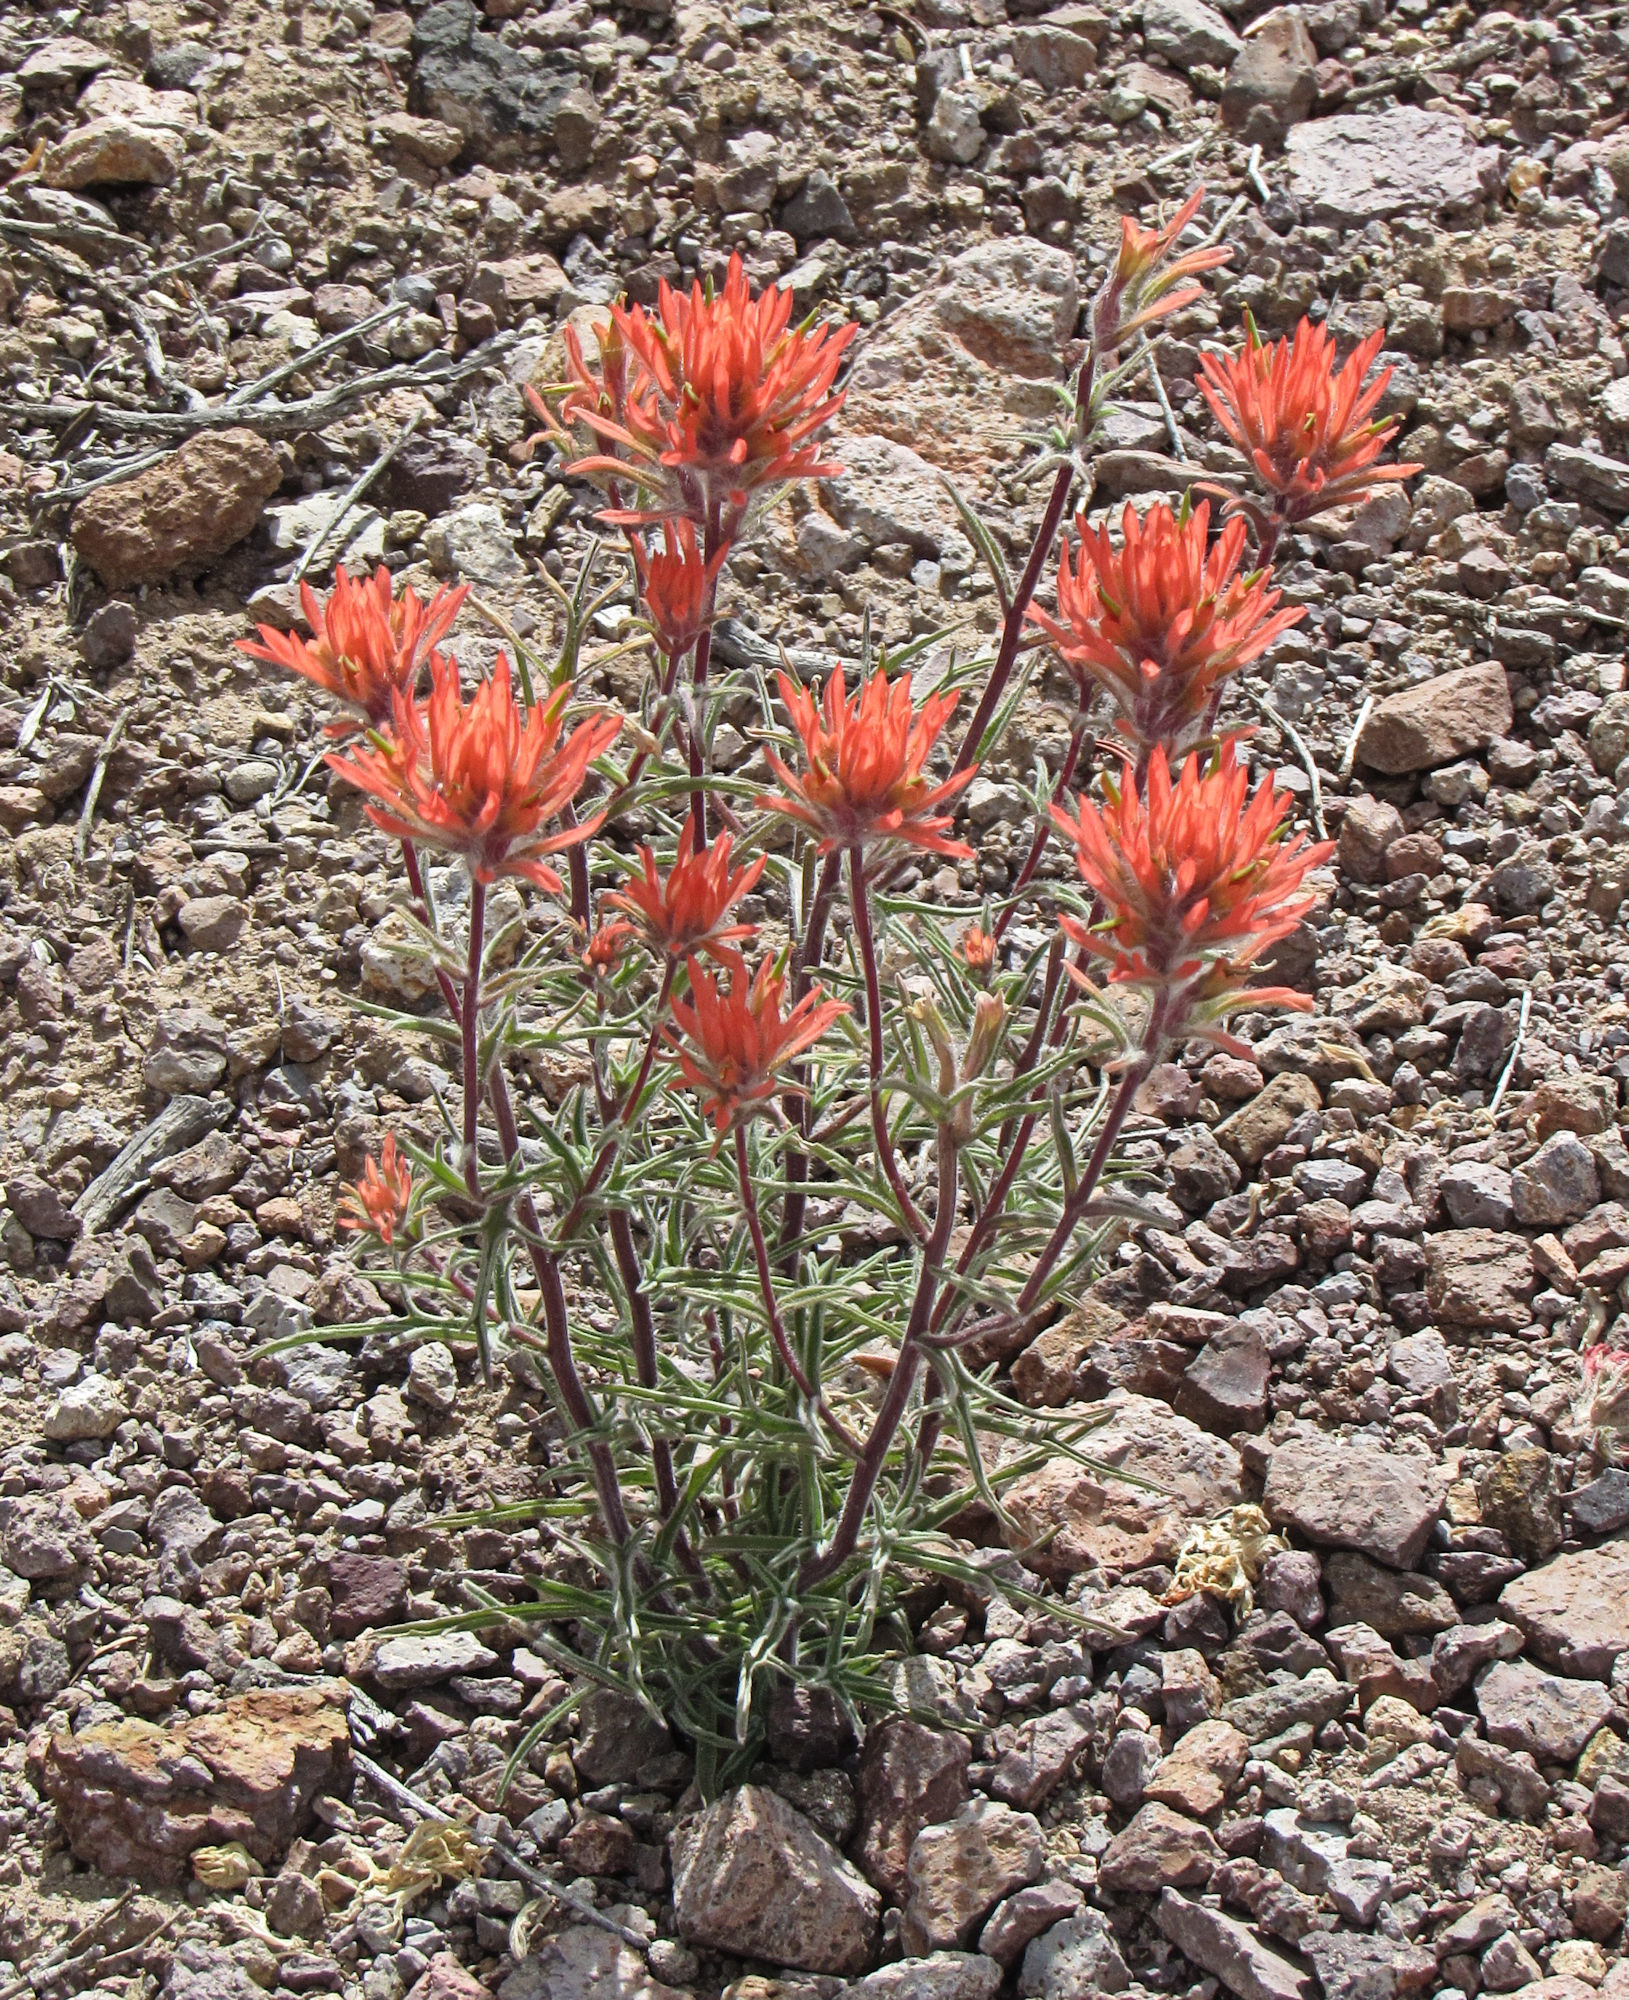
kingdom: Plantae
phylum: Tracheophyta
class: Magnoliopsida
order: Lamiales
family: Orobanchaceae
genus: Castilleja
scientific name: Castilleja chromosa
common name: Desert paintbrush
